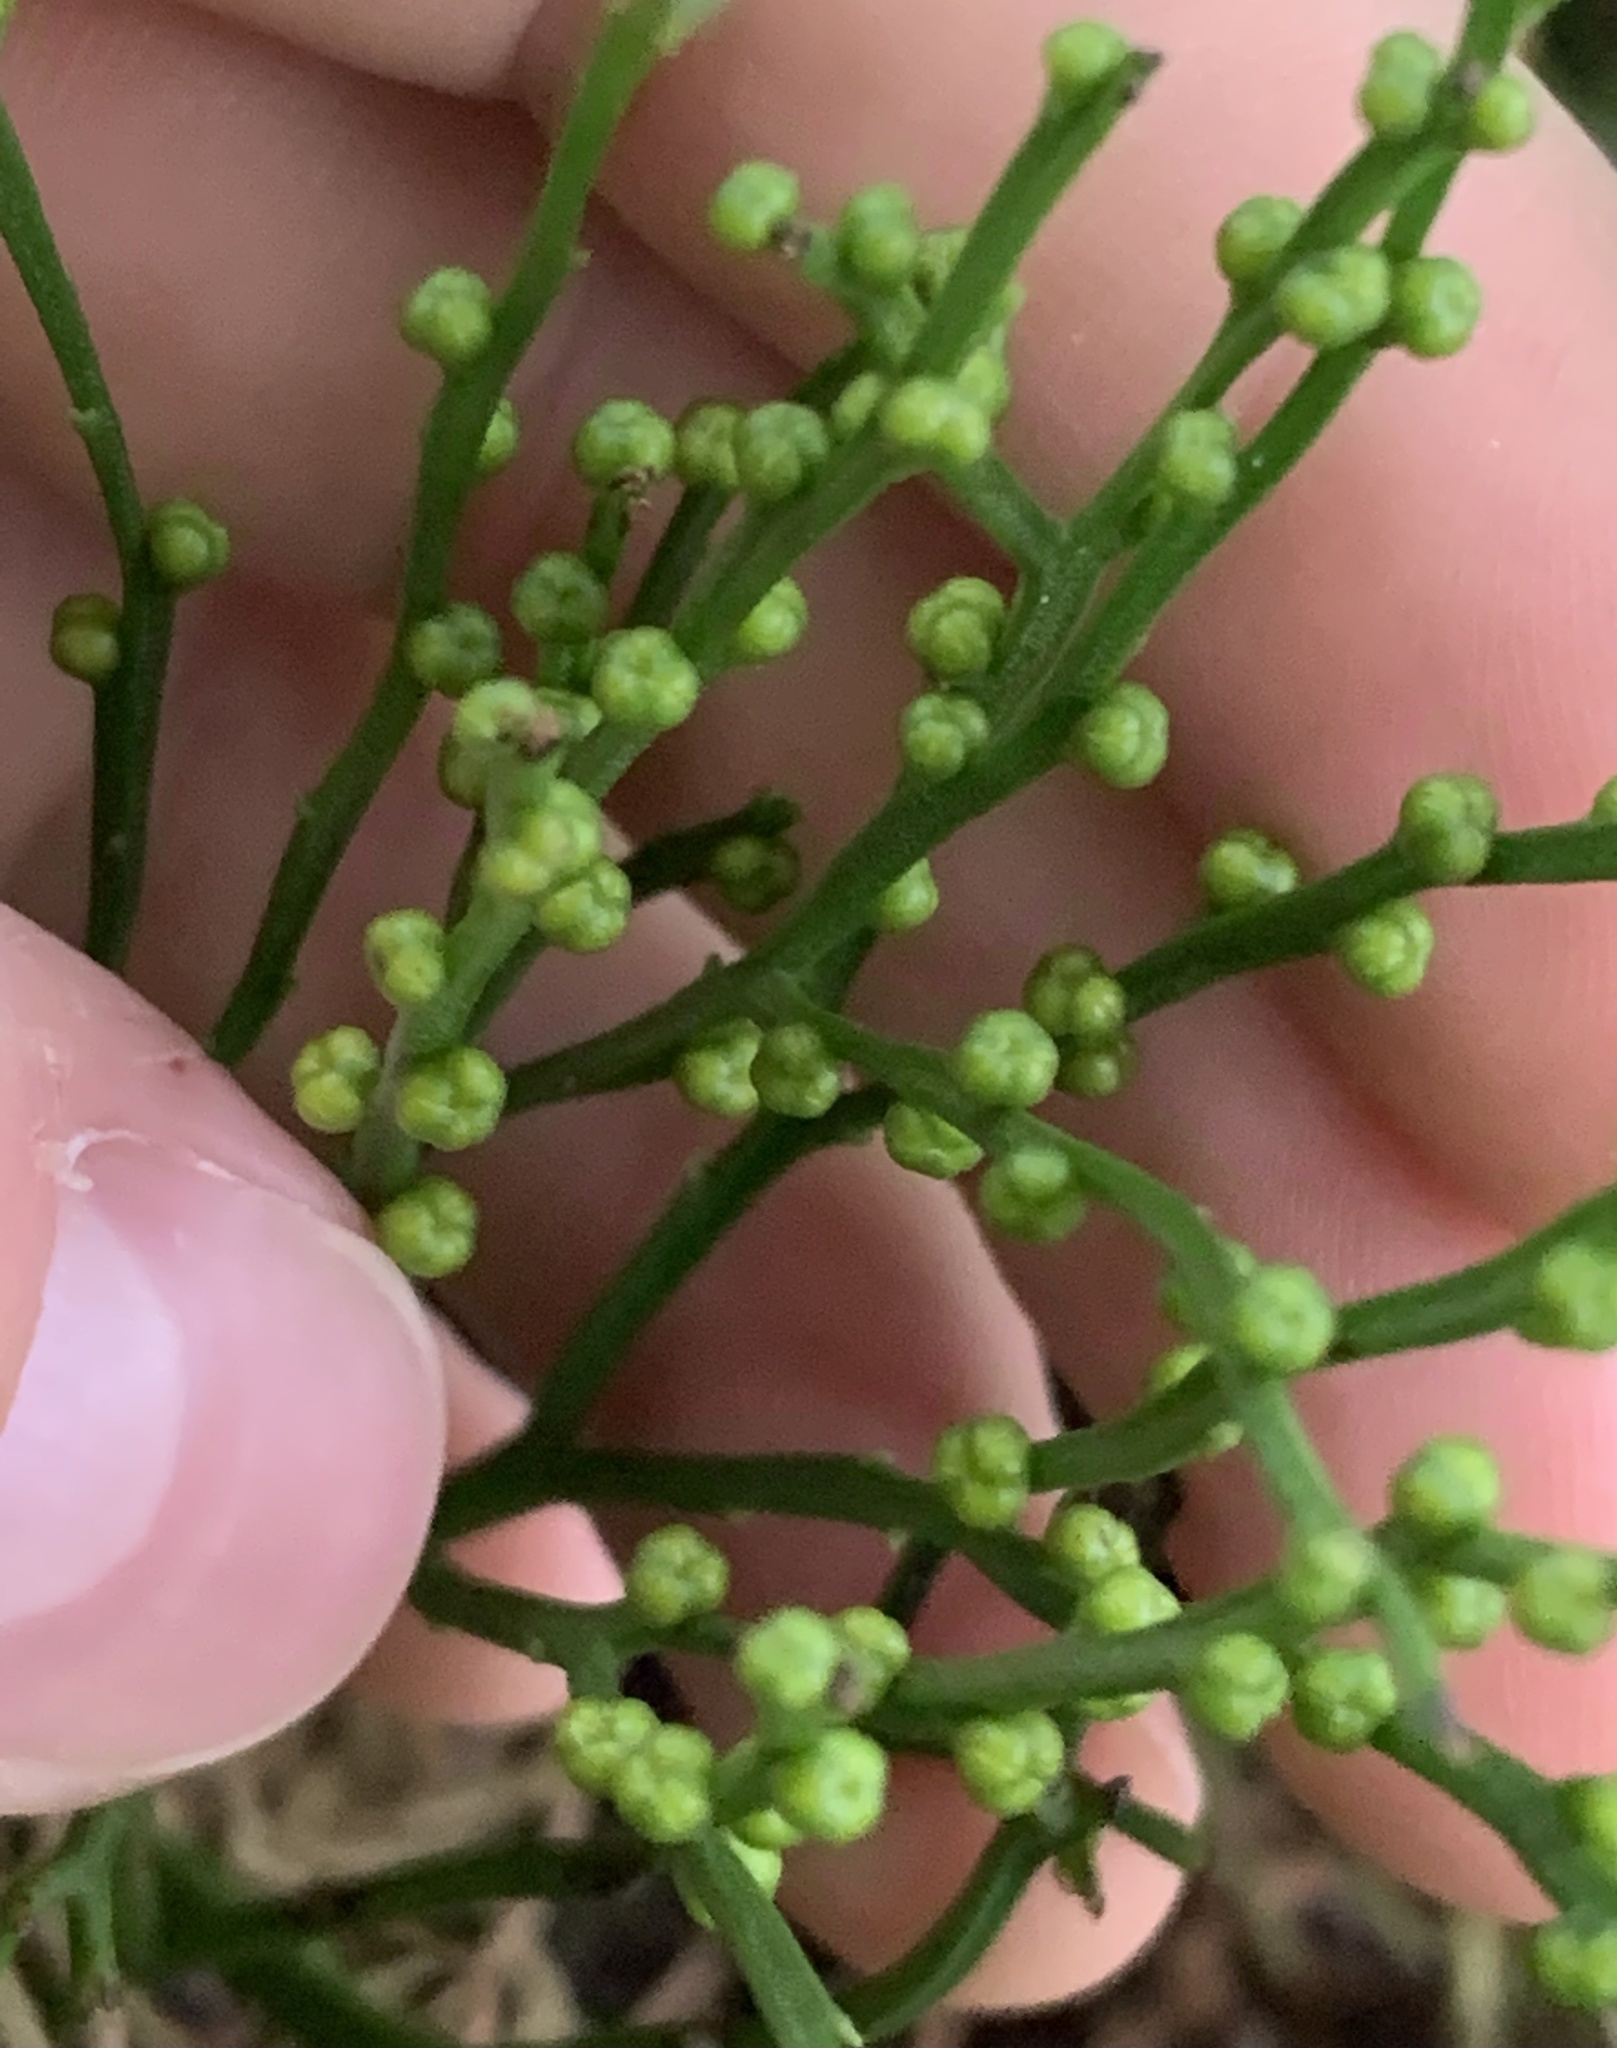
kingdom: Plantae
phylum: Tracheophyta
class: Polypodiopsida
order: Psilotales
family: Psilotaceae
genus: Psilotum
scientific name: Psilotum nudum
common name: Skeleton fork fern
